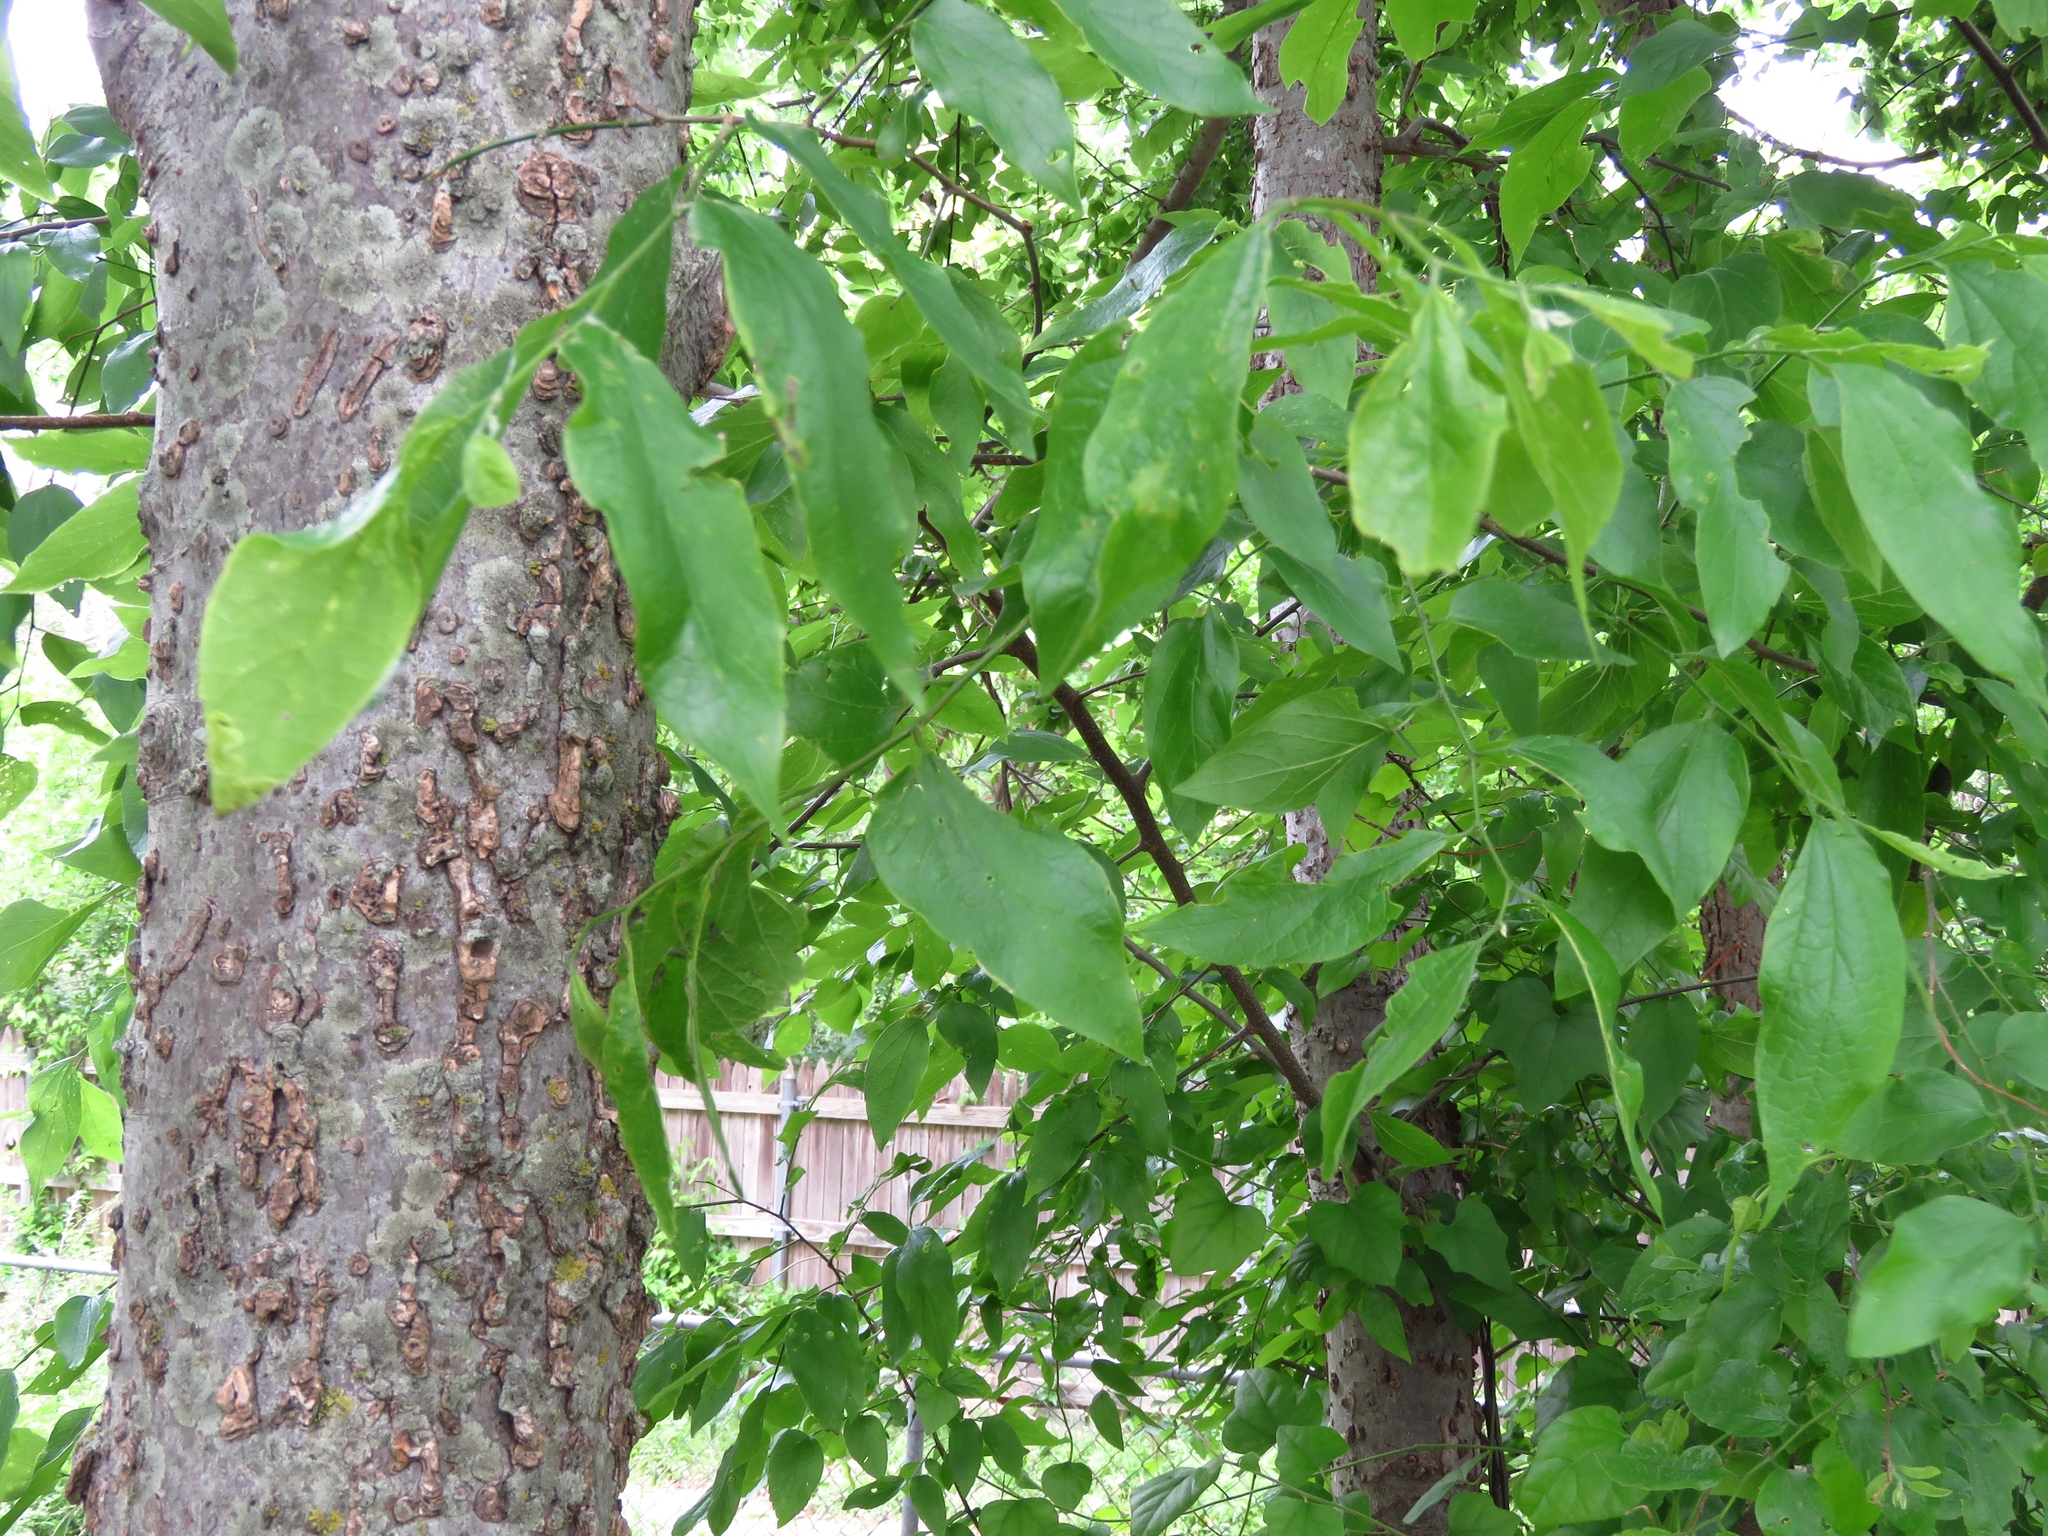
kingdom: Plantae
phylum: Tracheophyta
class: Magnoliopsida
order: Rosales
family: Cannabaceae
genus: Celtis
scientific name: Celtis laevigata
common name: Sugarberry
